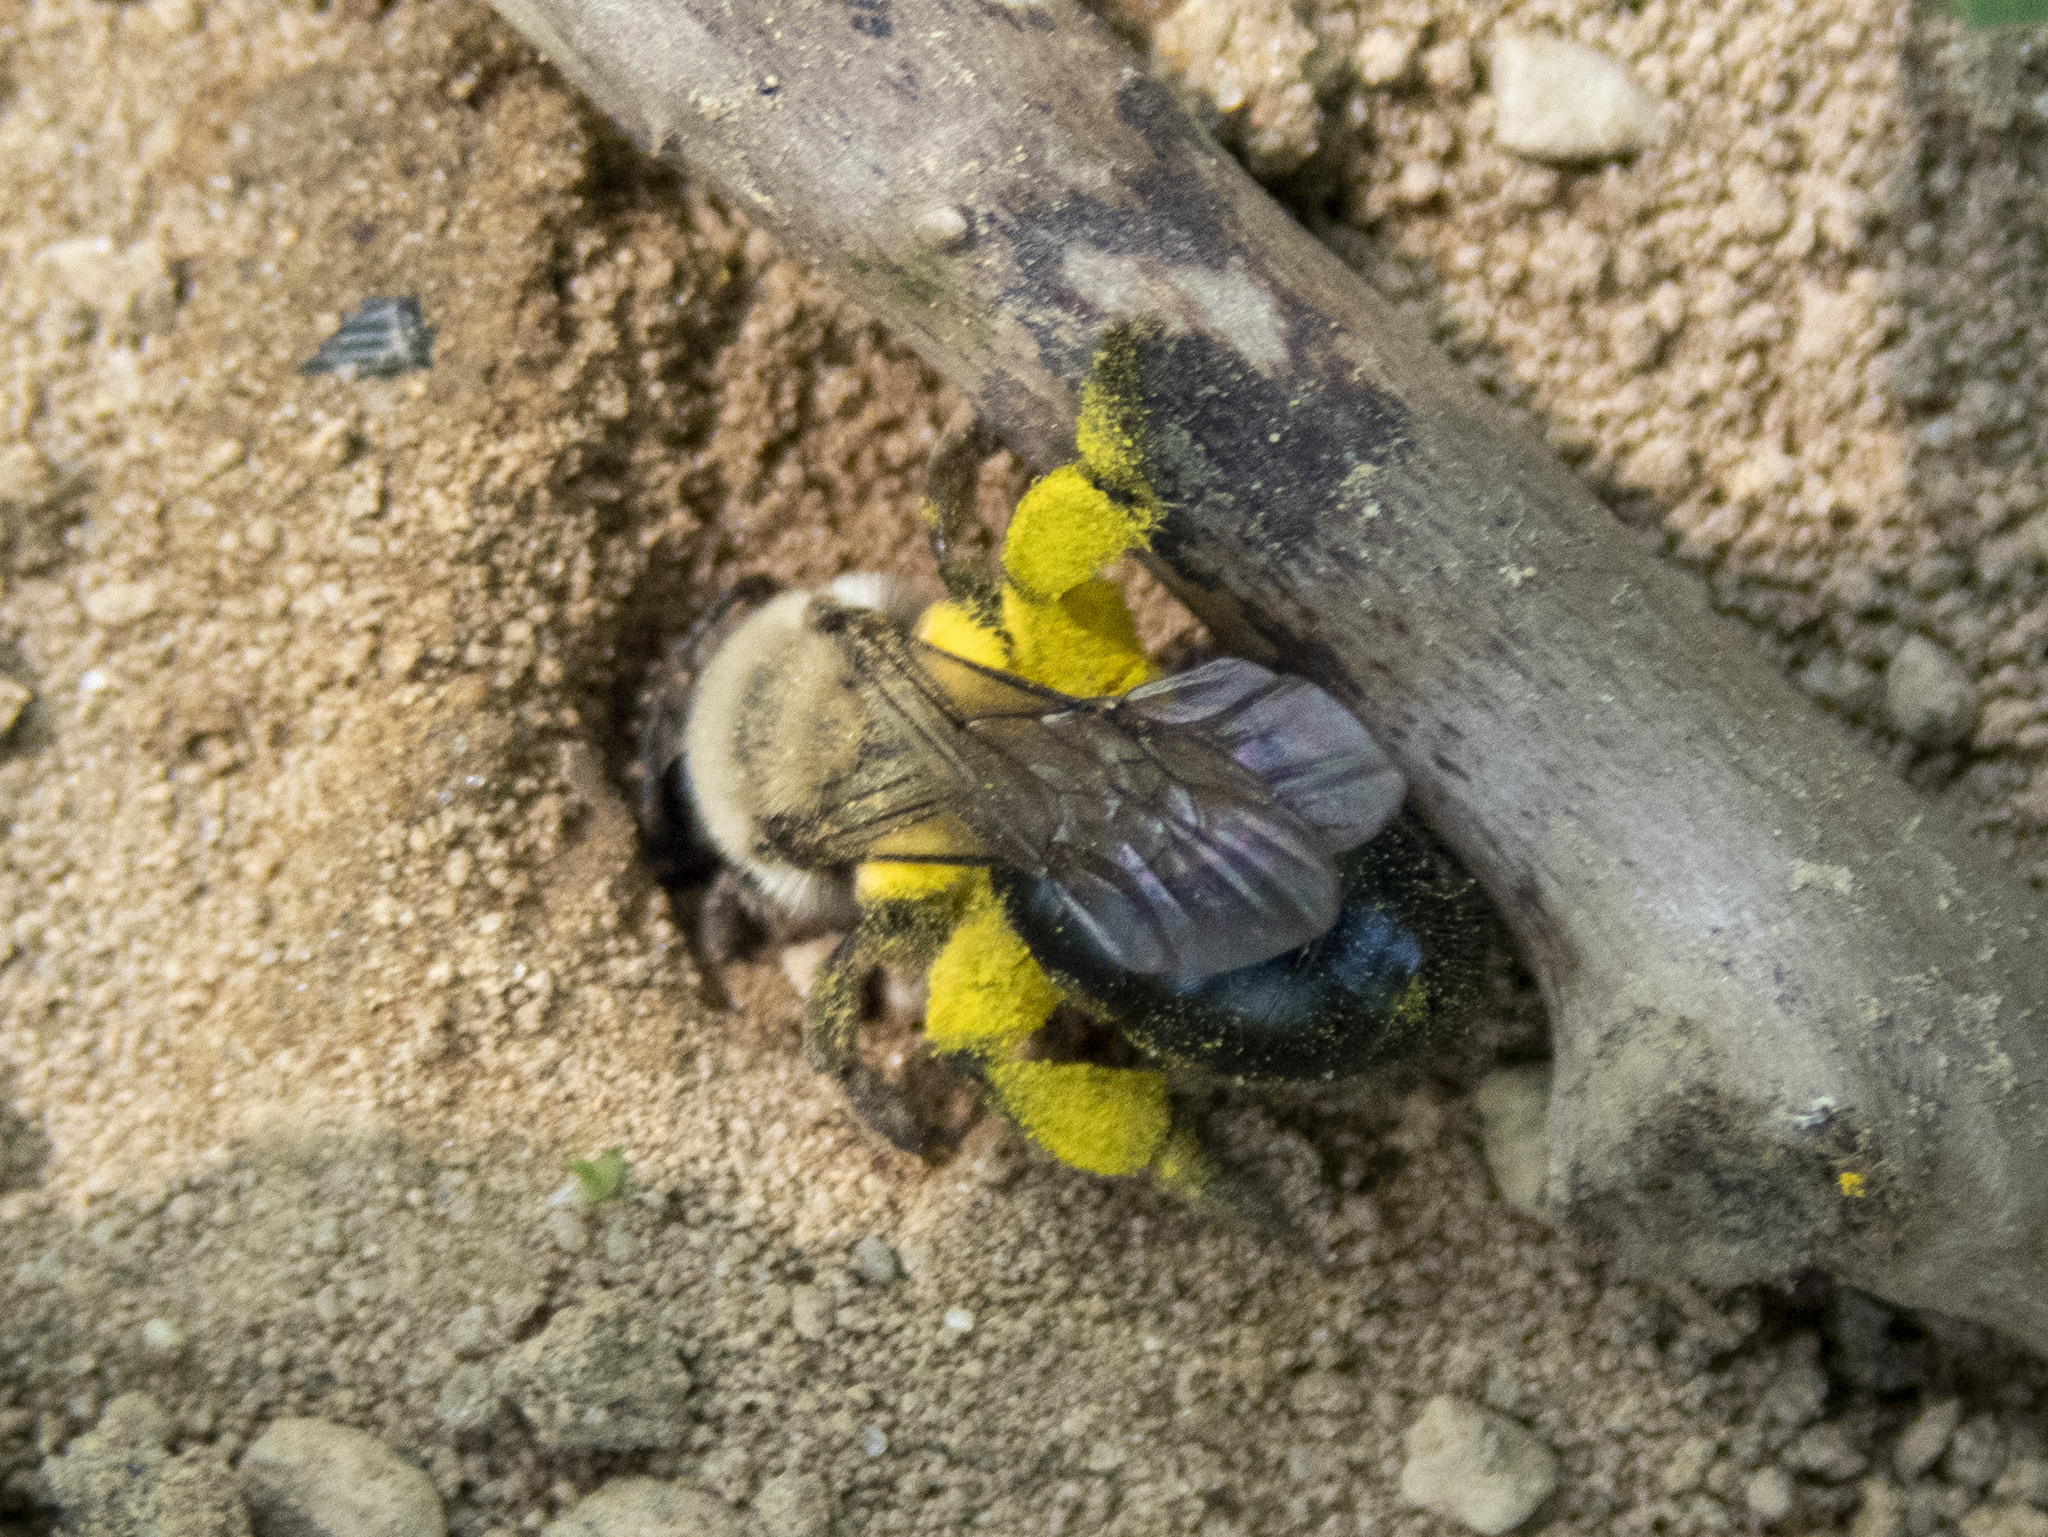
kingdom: Animalia
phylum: Arthropoda
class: Insecta
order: Hymenoptera
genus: Melandrena
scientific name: Melandrena
